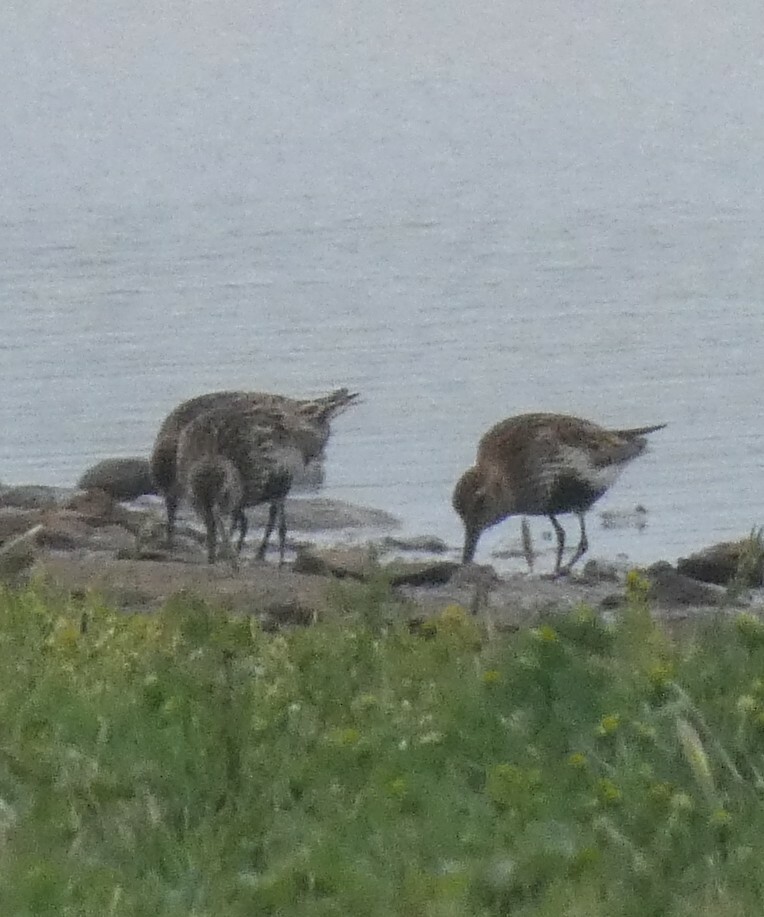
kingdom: Animalia
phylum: Chordata
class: Aves
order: Charadriiformes
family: Scolopacidae
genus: Calidris
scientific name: Calidris alpina
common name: Dunlin
